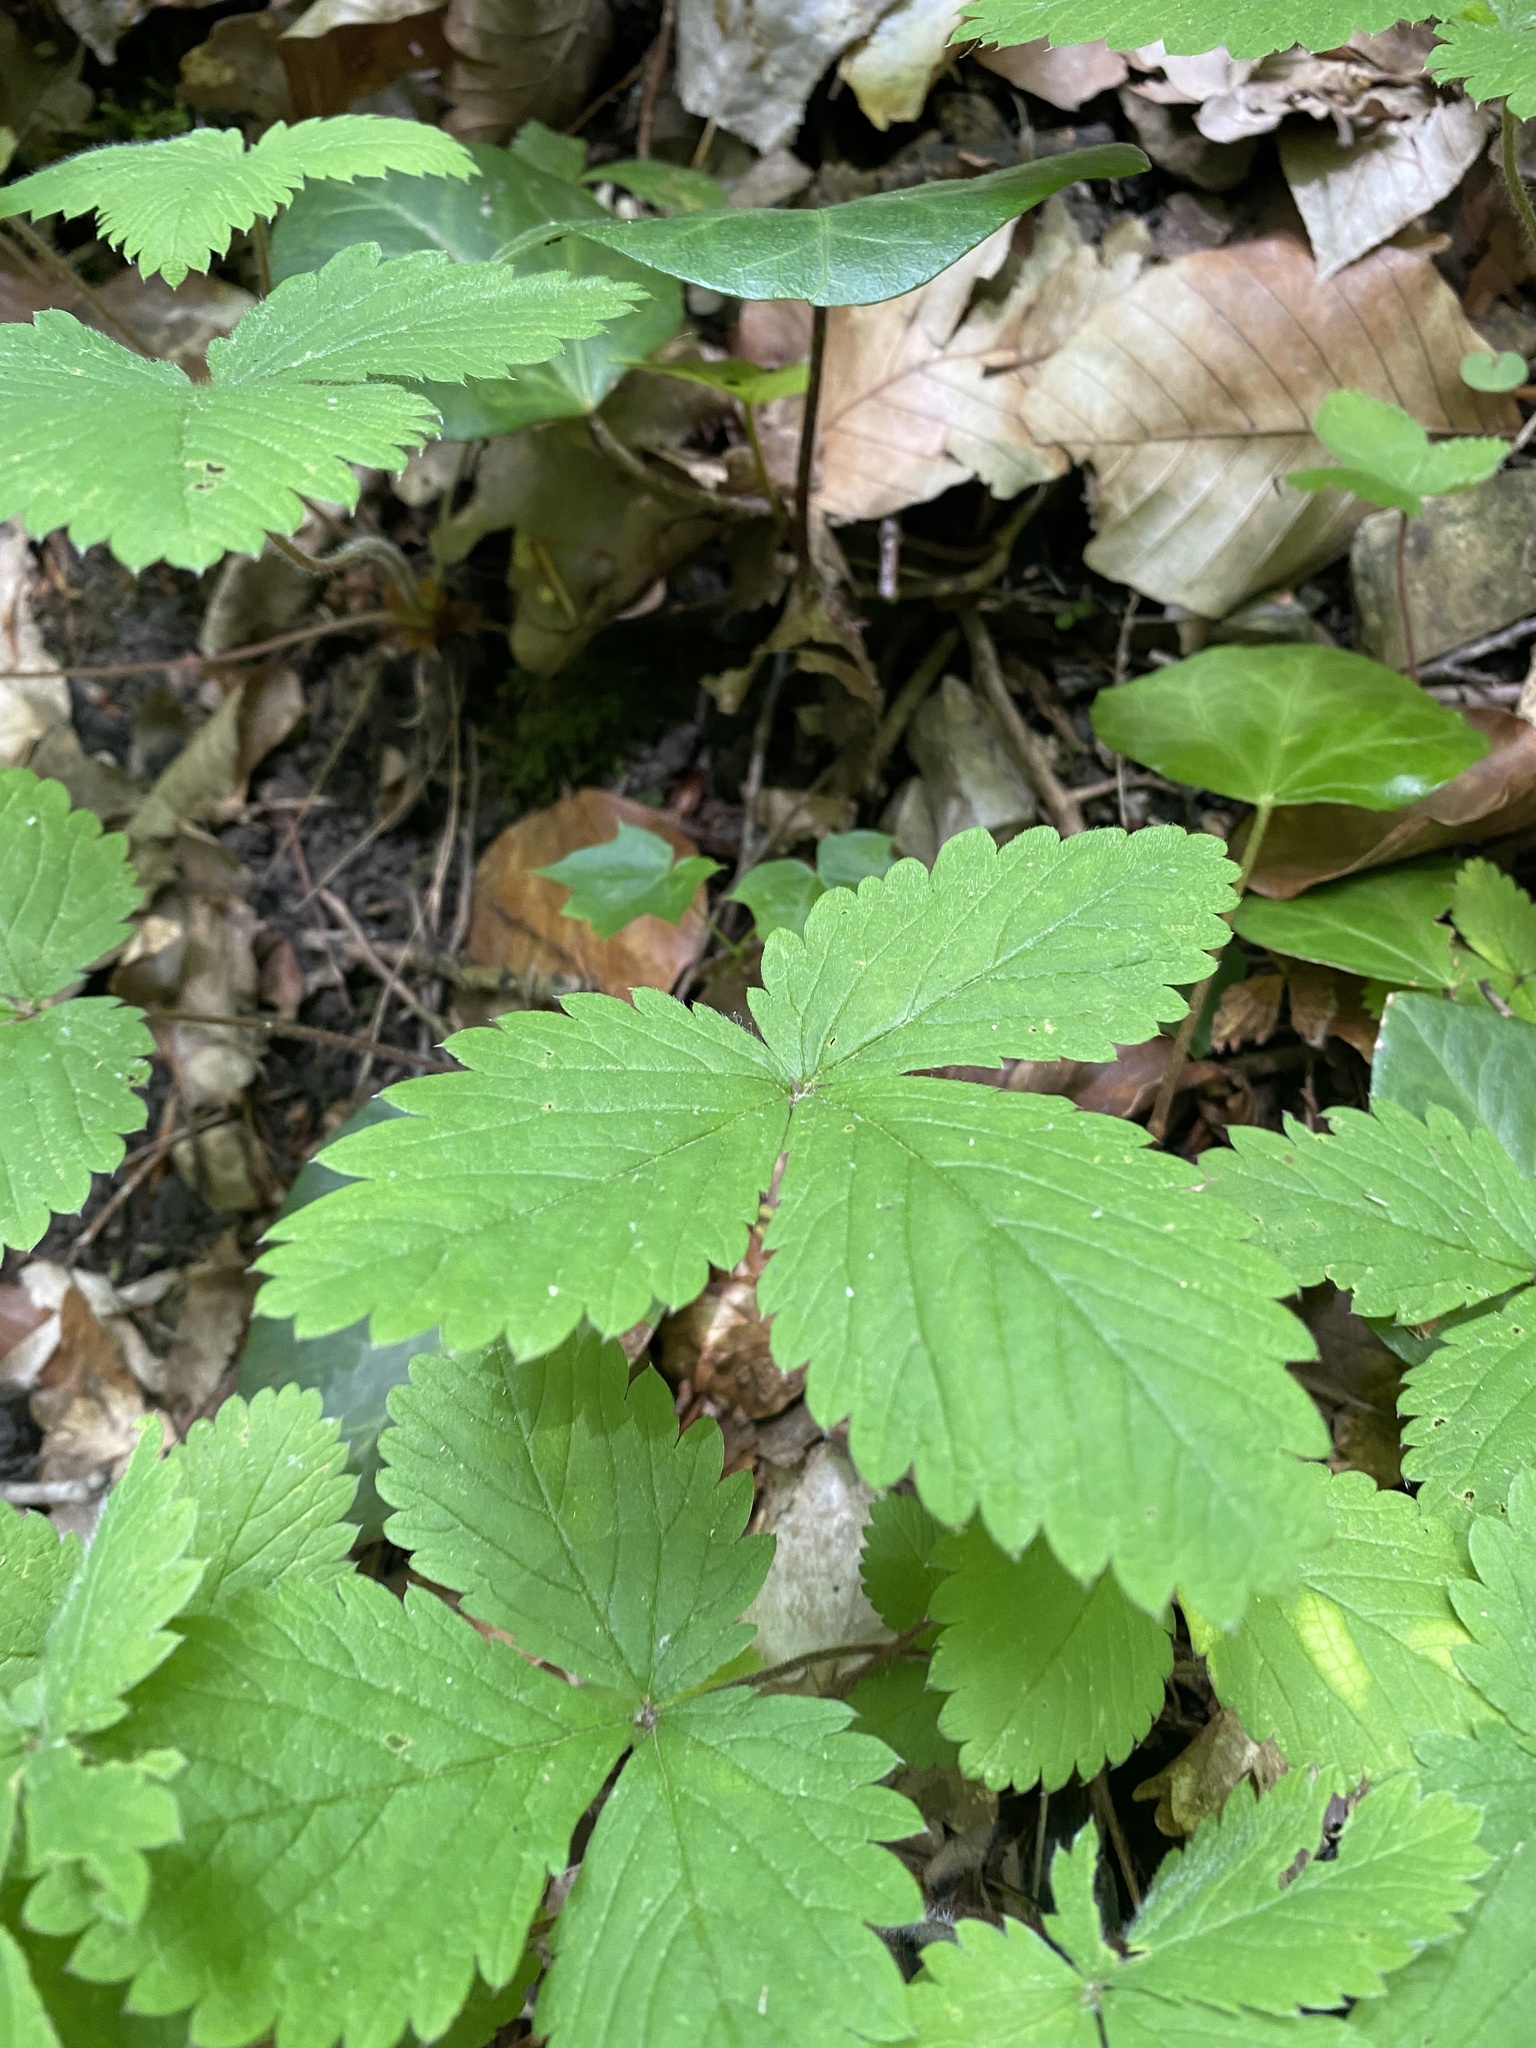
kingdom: Plantae
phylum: Tracheophyta
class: Magnoliopsida
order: Rosales
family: Rosaceae
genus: Potentilla
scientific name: Potentilla micrantha
